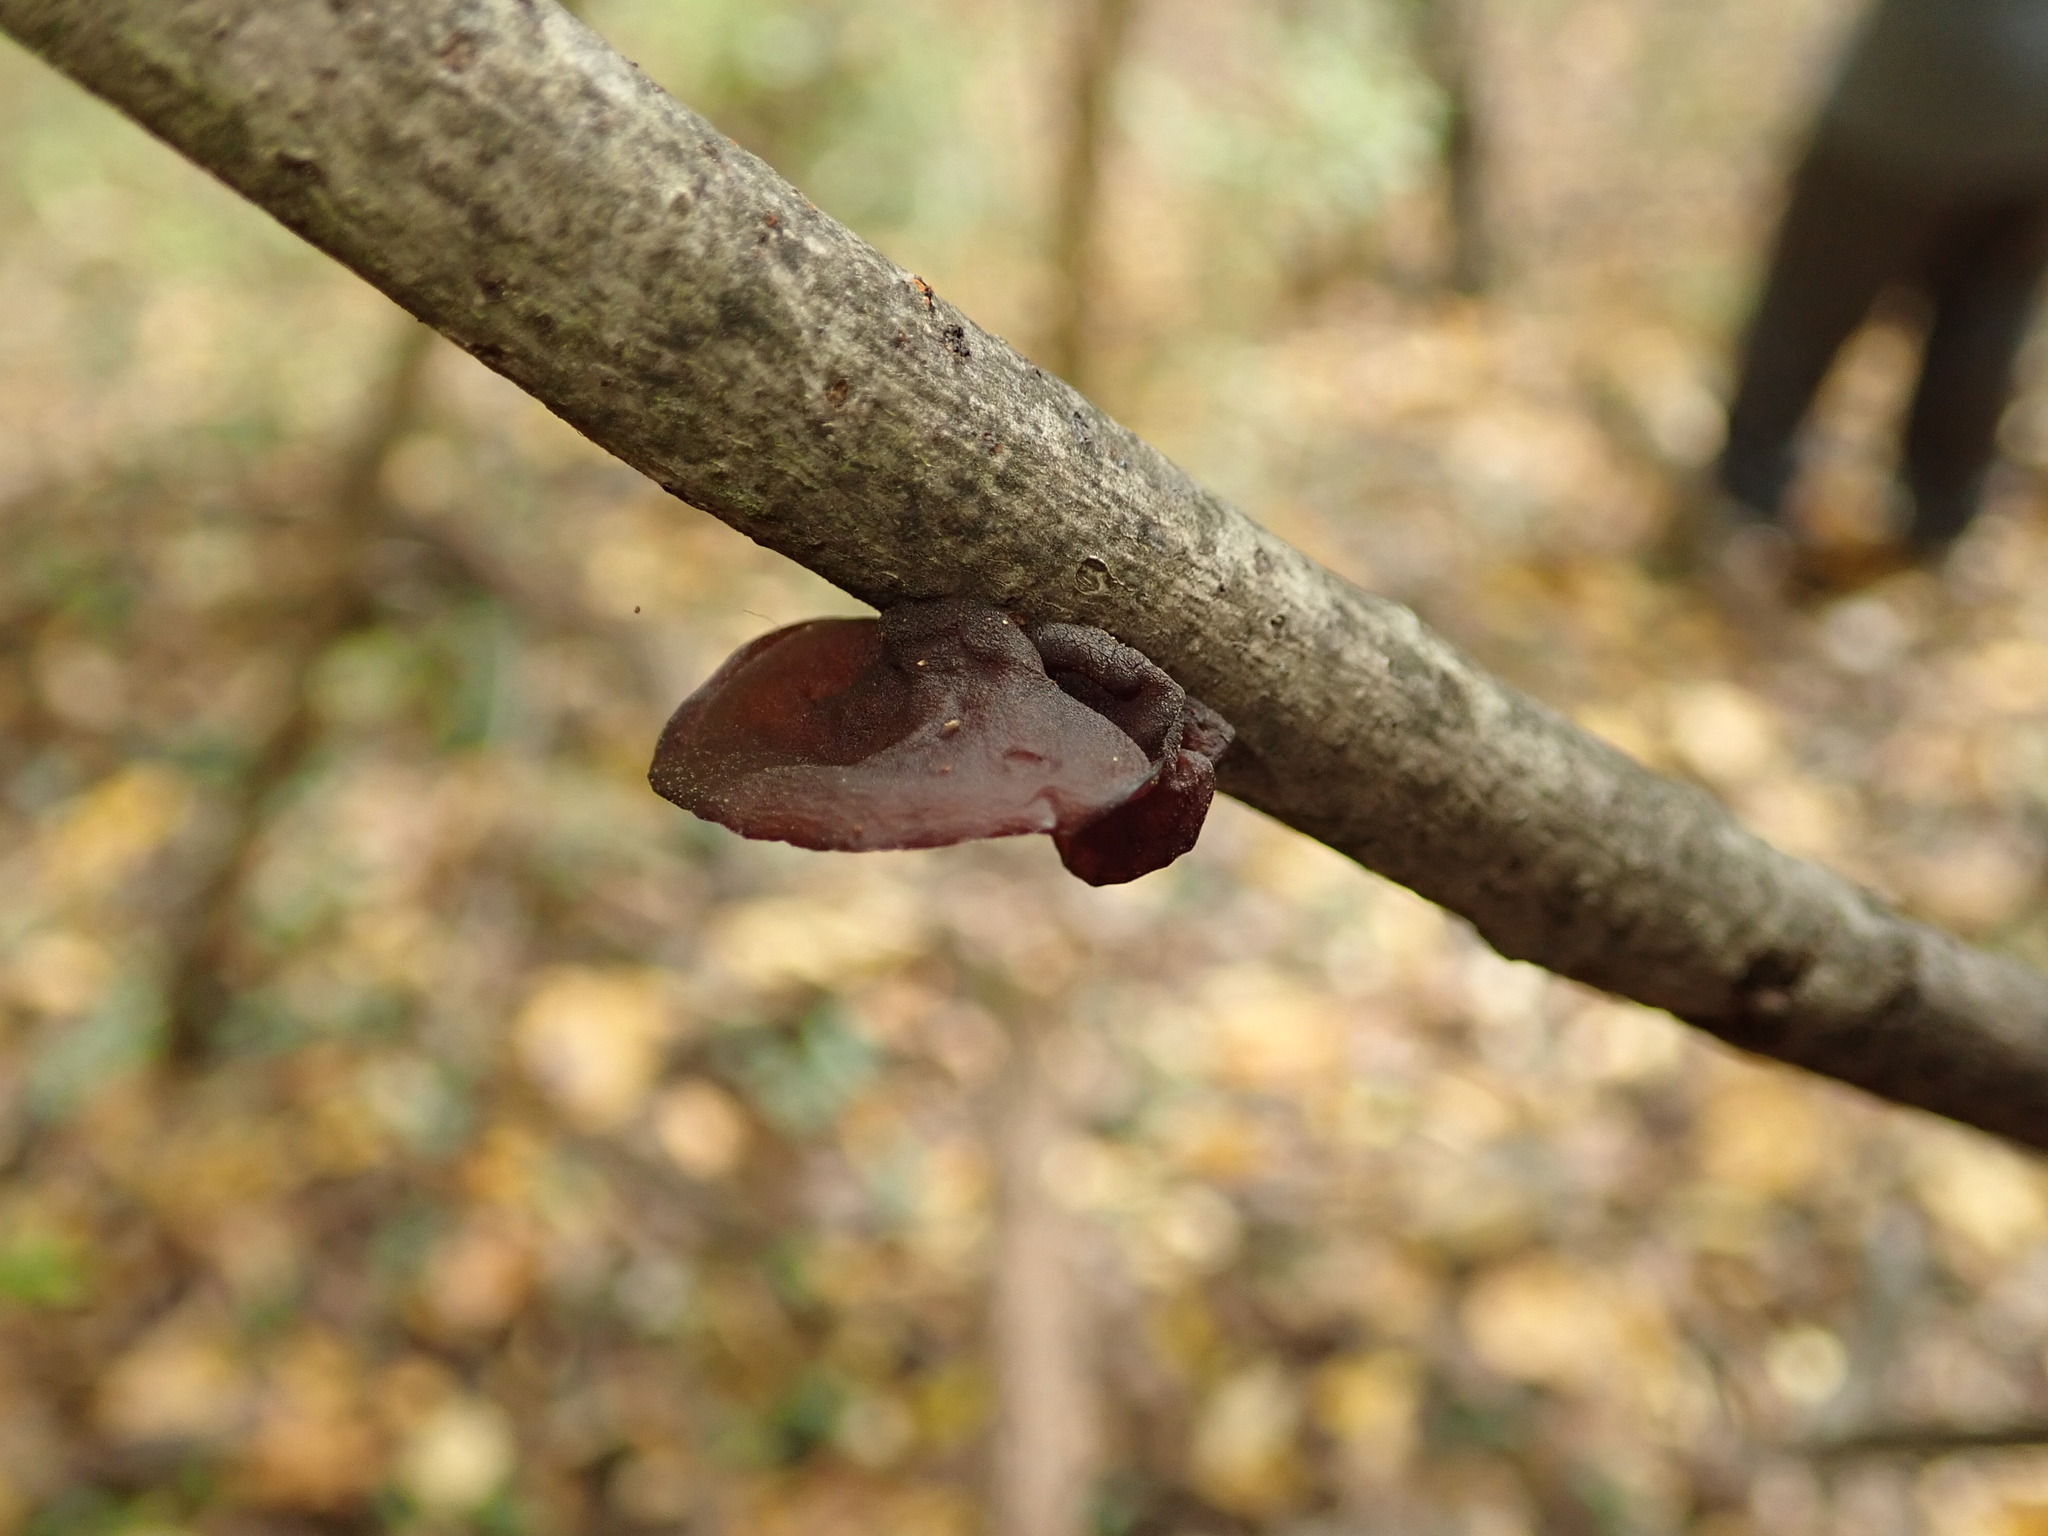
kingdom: Fungi
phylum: Basidiomycota
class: Agaricomycetes
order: Auriculariales
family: Auriculariaceae
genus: Exidia
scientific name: Exidia
